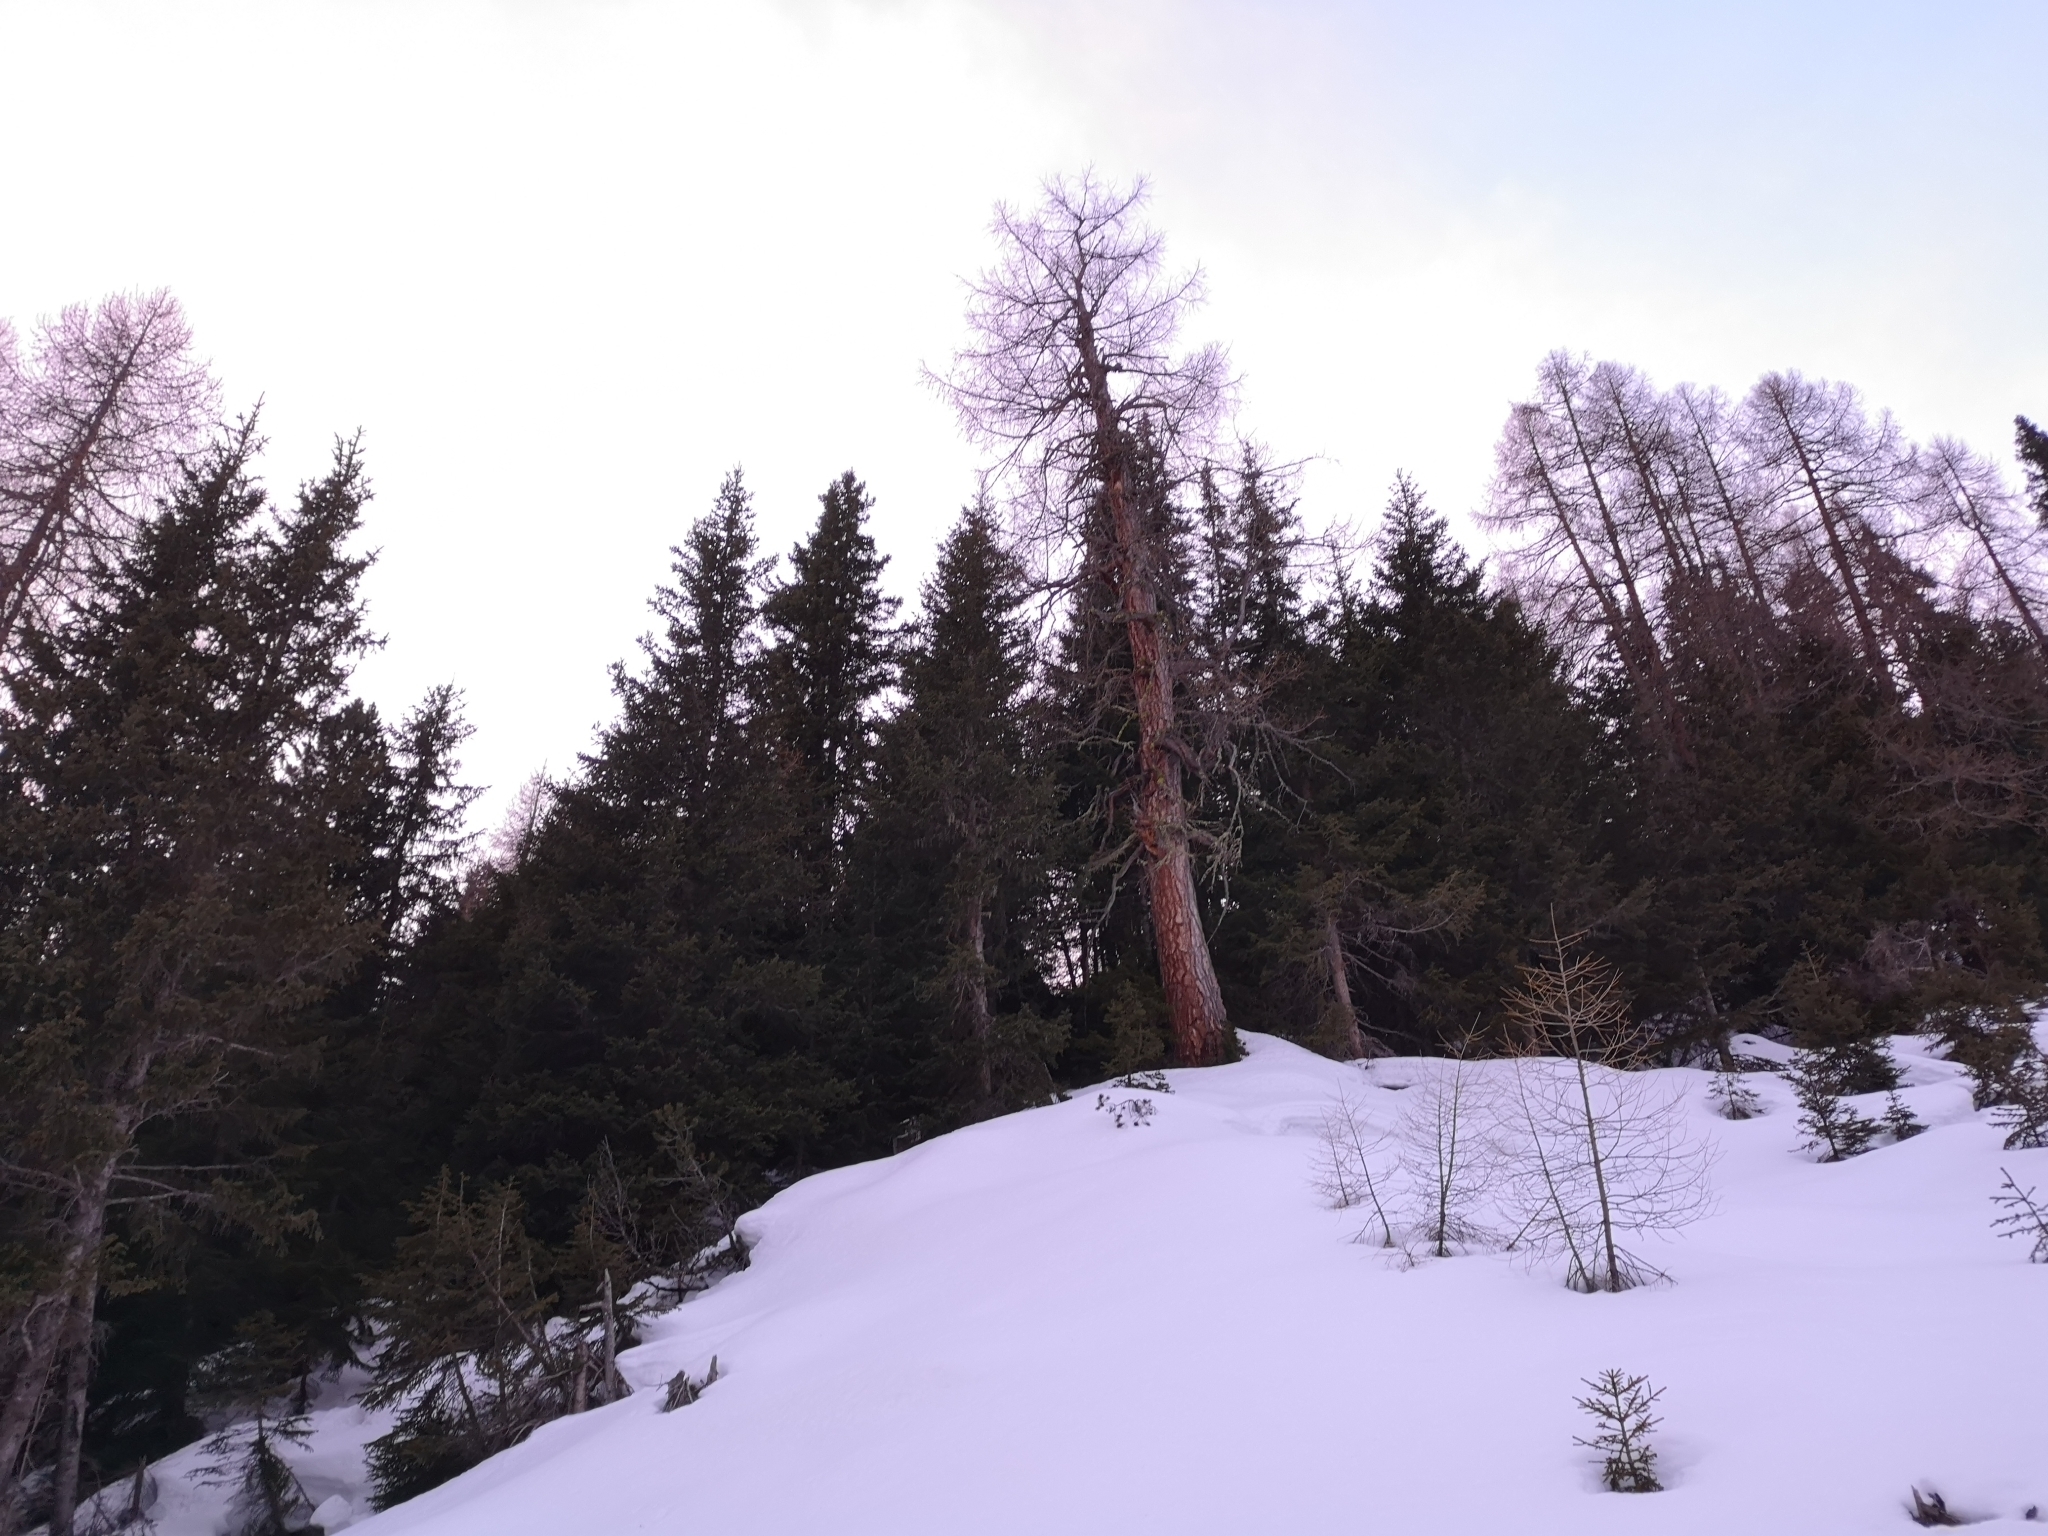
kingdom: Plantae
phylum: Tracheophyta
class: Pinopsida
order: Pinales
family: Pinaceae
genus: Picea
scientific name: Picea abies
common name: Norway spruce
